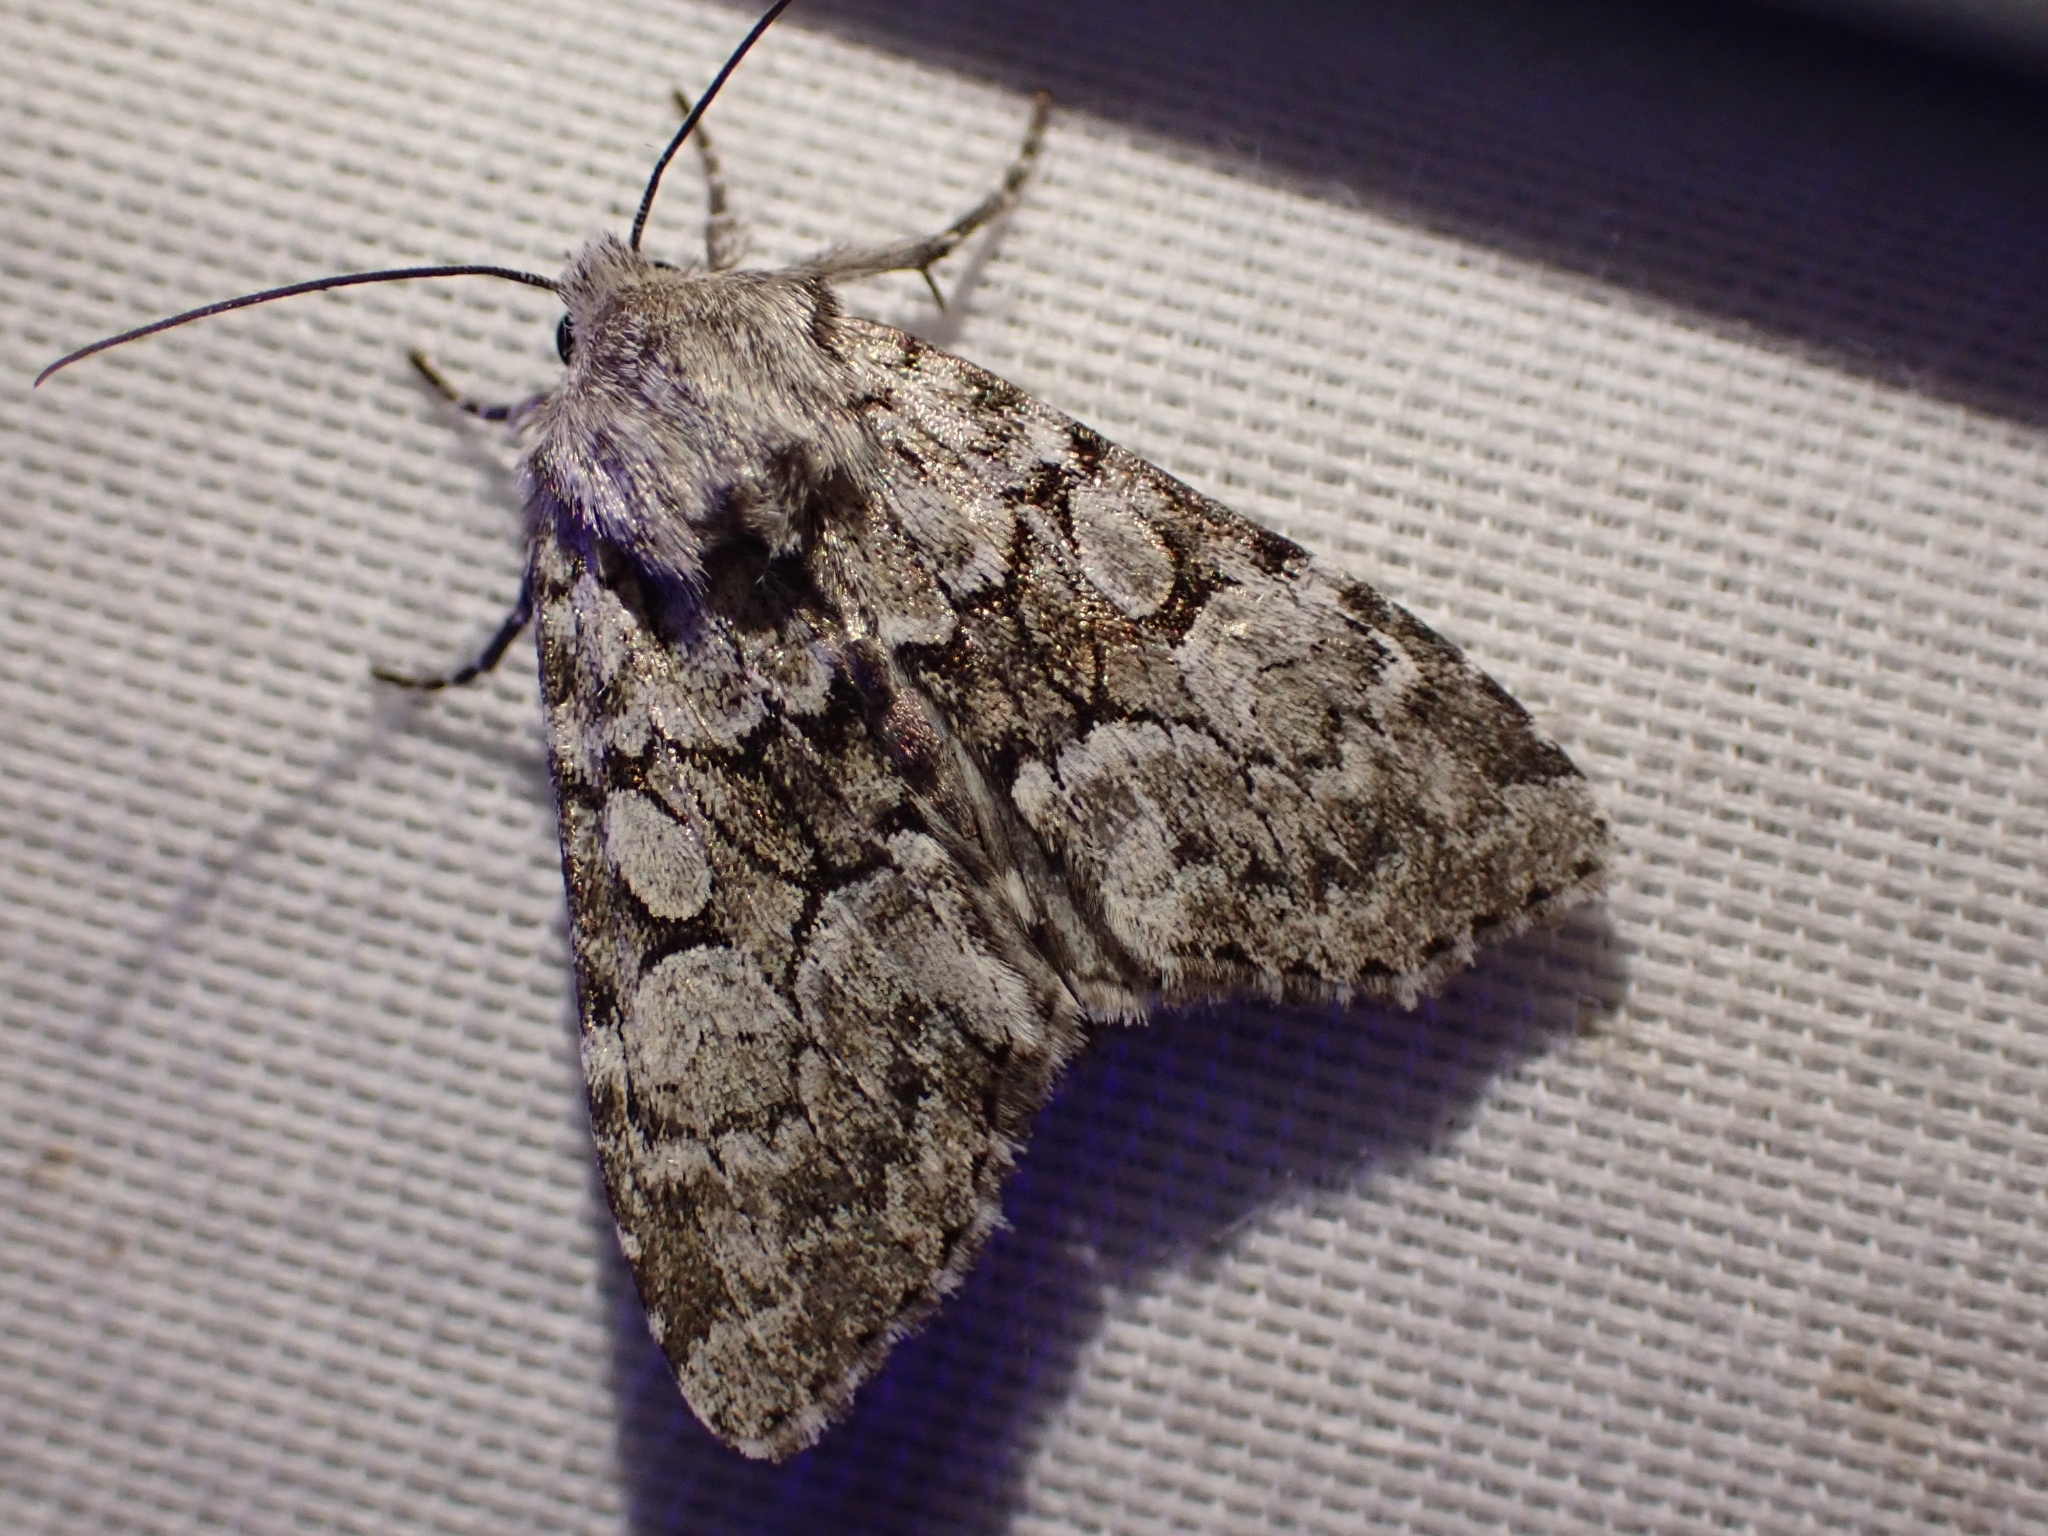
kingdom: Animalia
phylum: Arthropoda
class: Insecta
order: Lepidoptera
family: Noctuidae
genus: Eremobina
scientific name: Eremobina claudens
